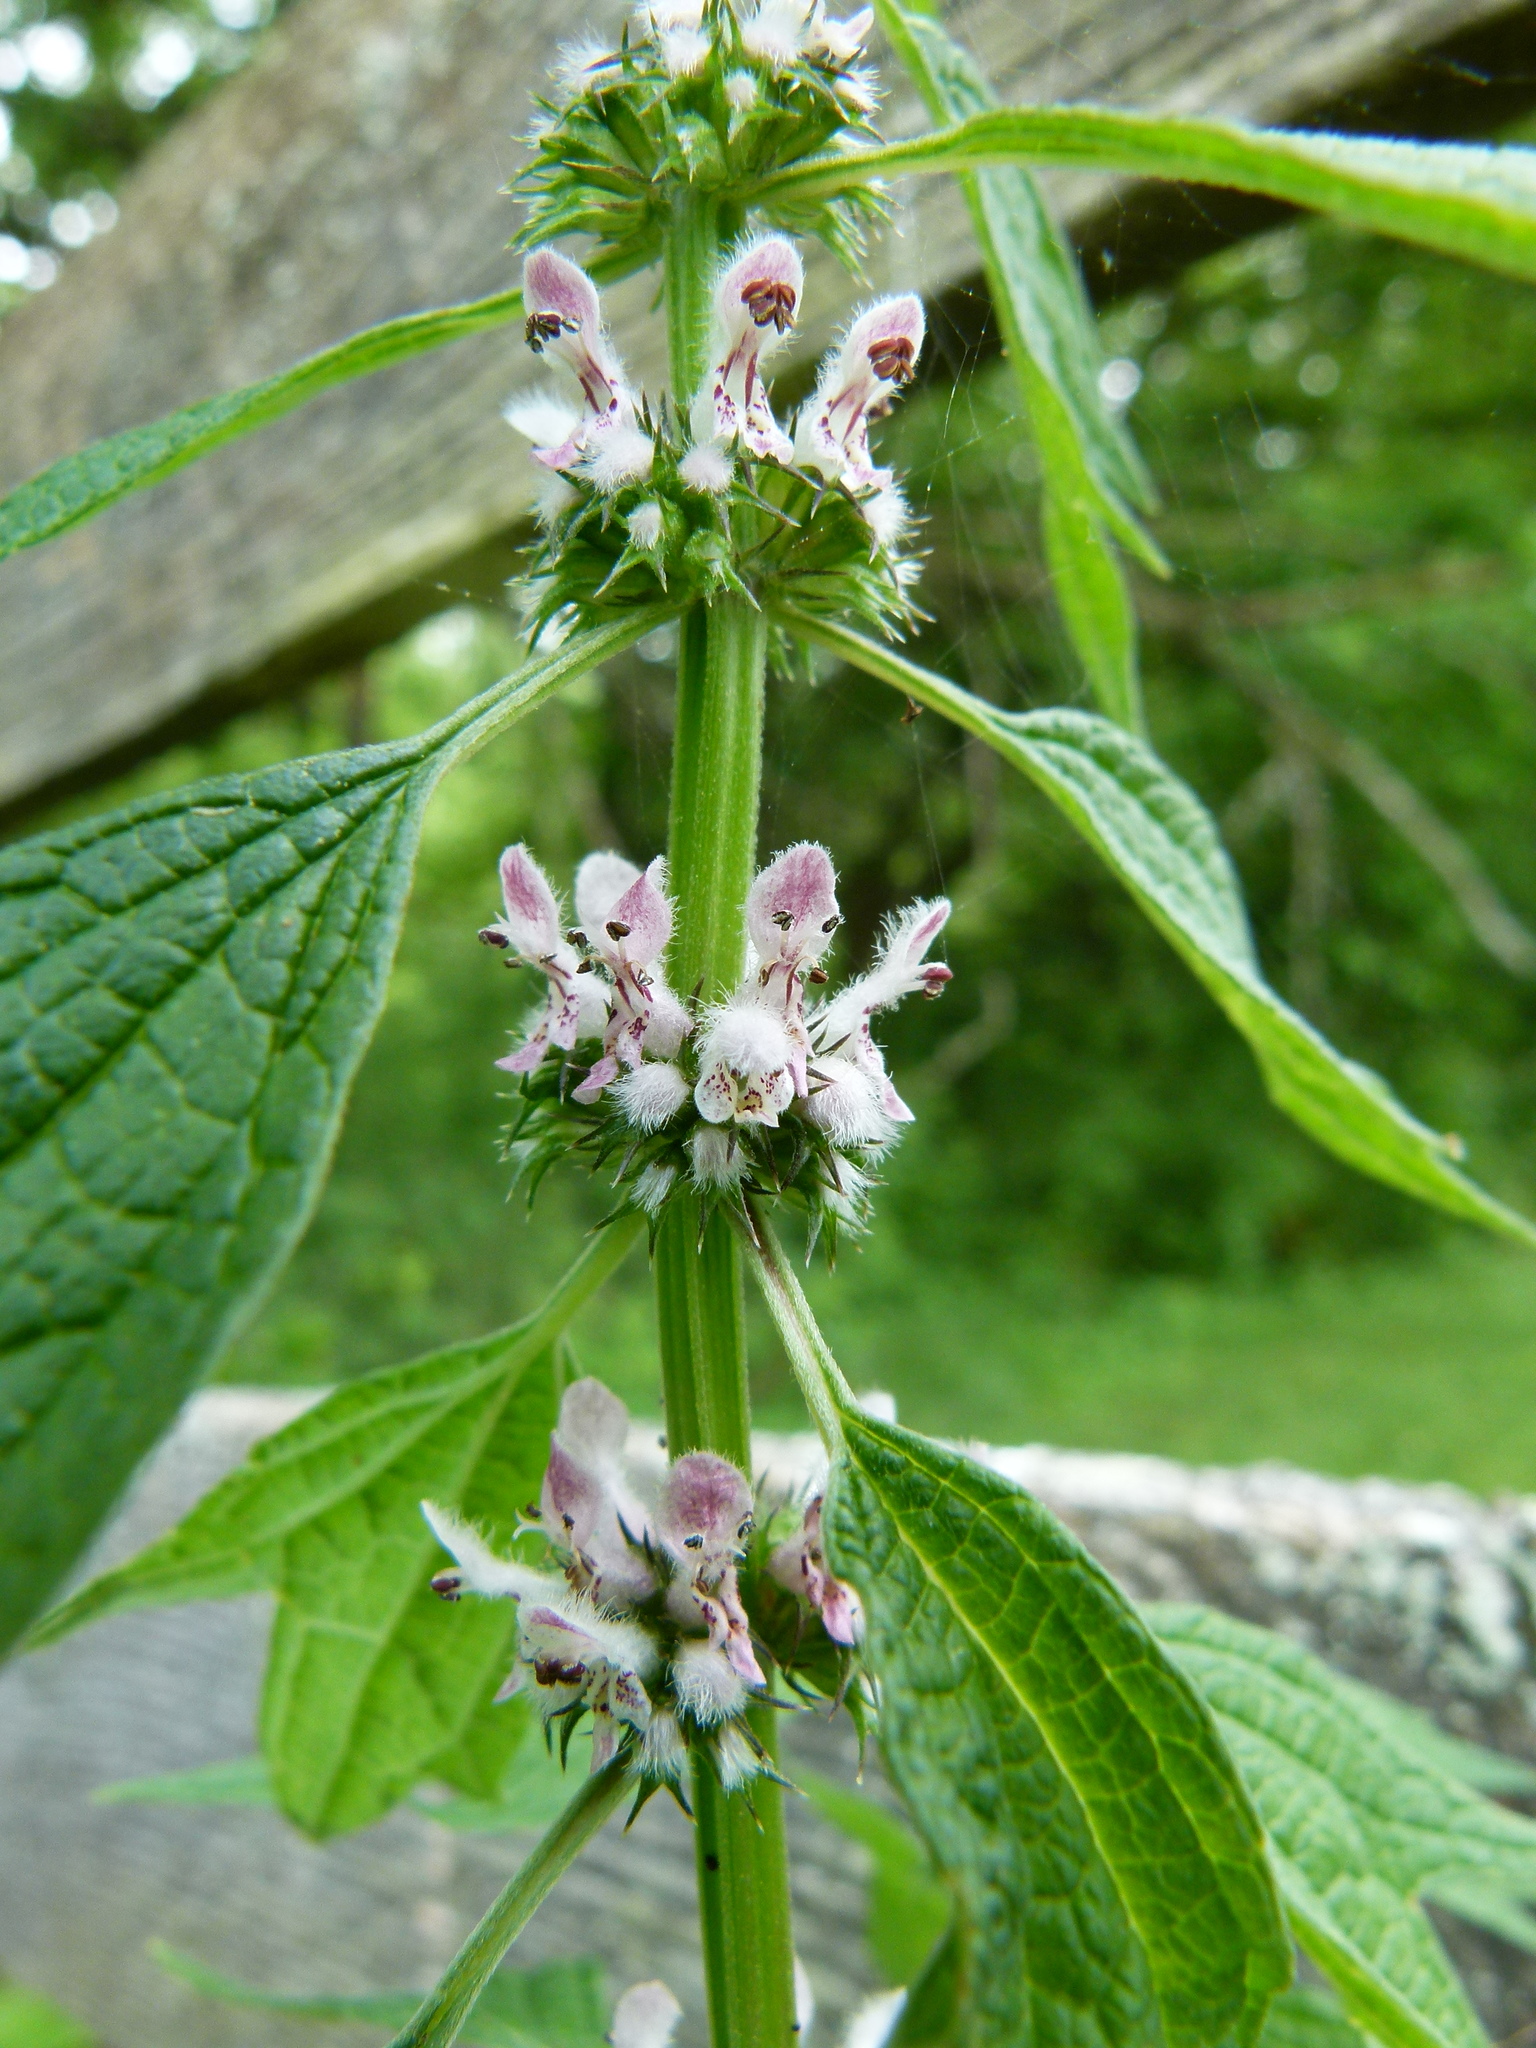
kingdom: Plantae
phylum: Tracheophyta
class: Magnoliopsida
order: Lamiales
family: Lamiaceae
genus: Leonurus
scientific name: Leonurus cardiaca
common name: Motherwort
